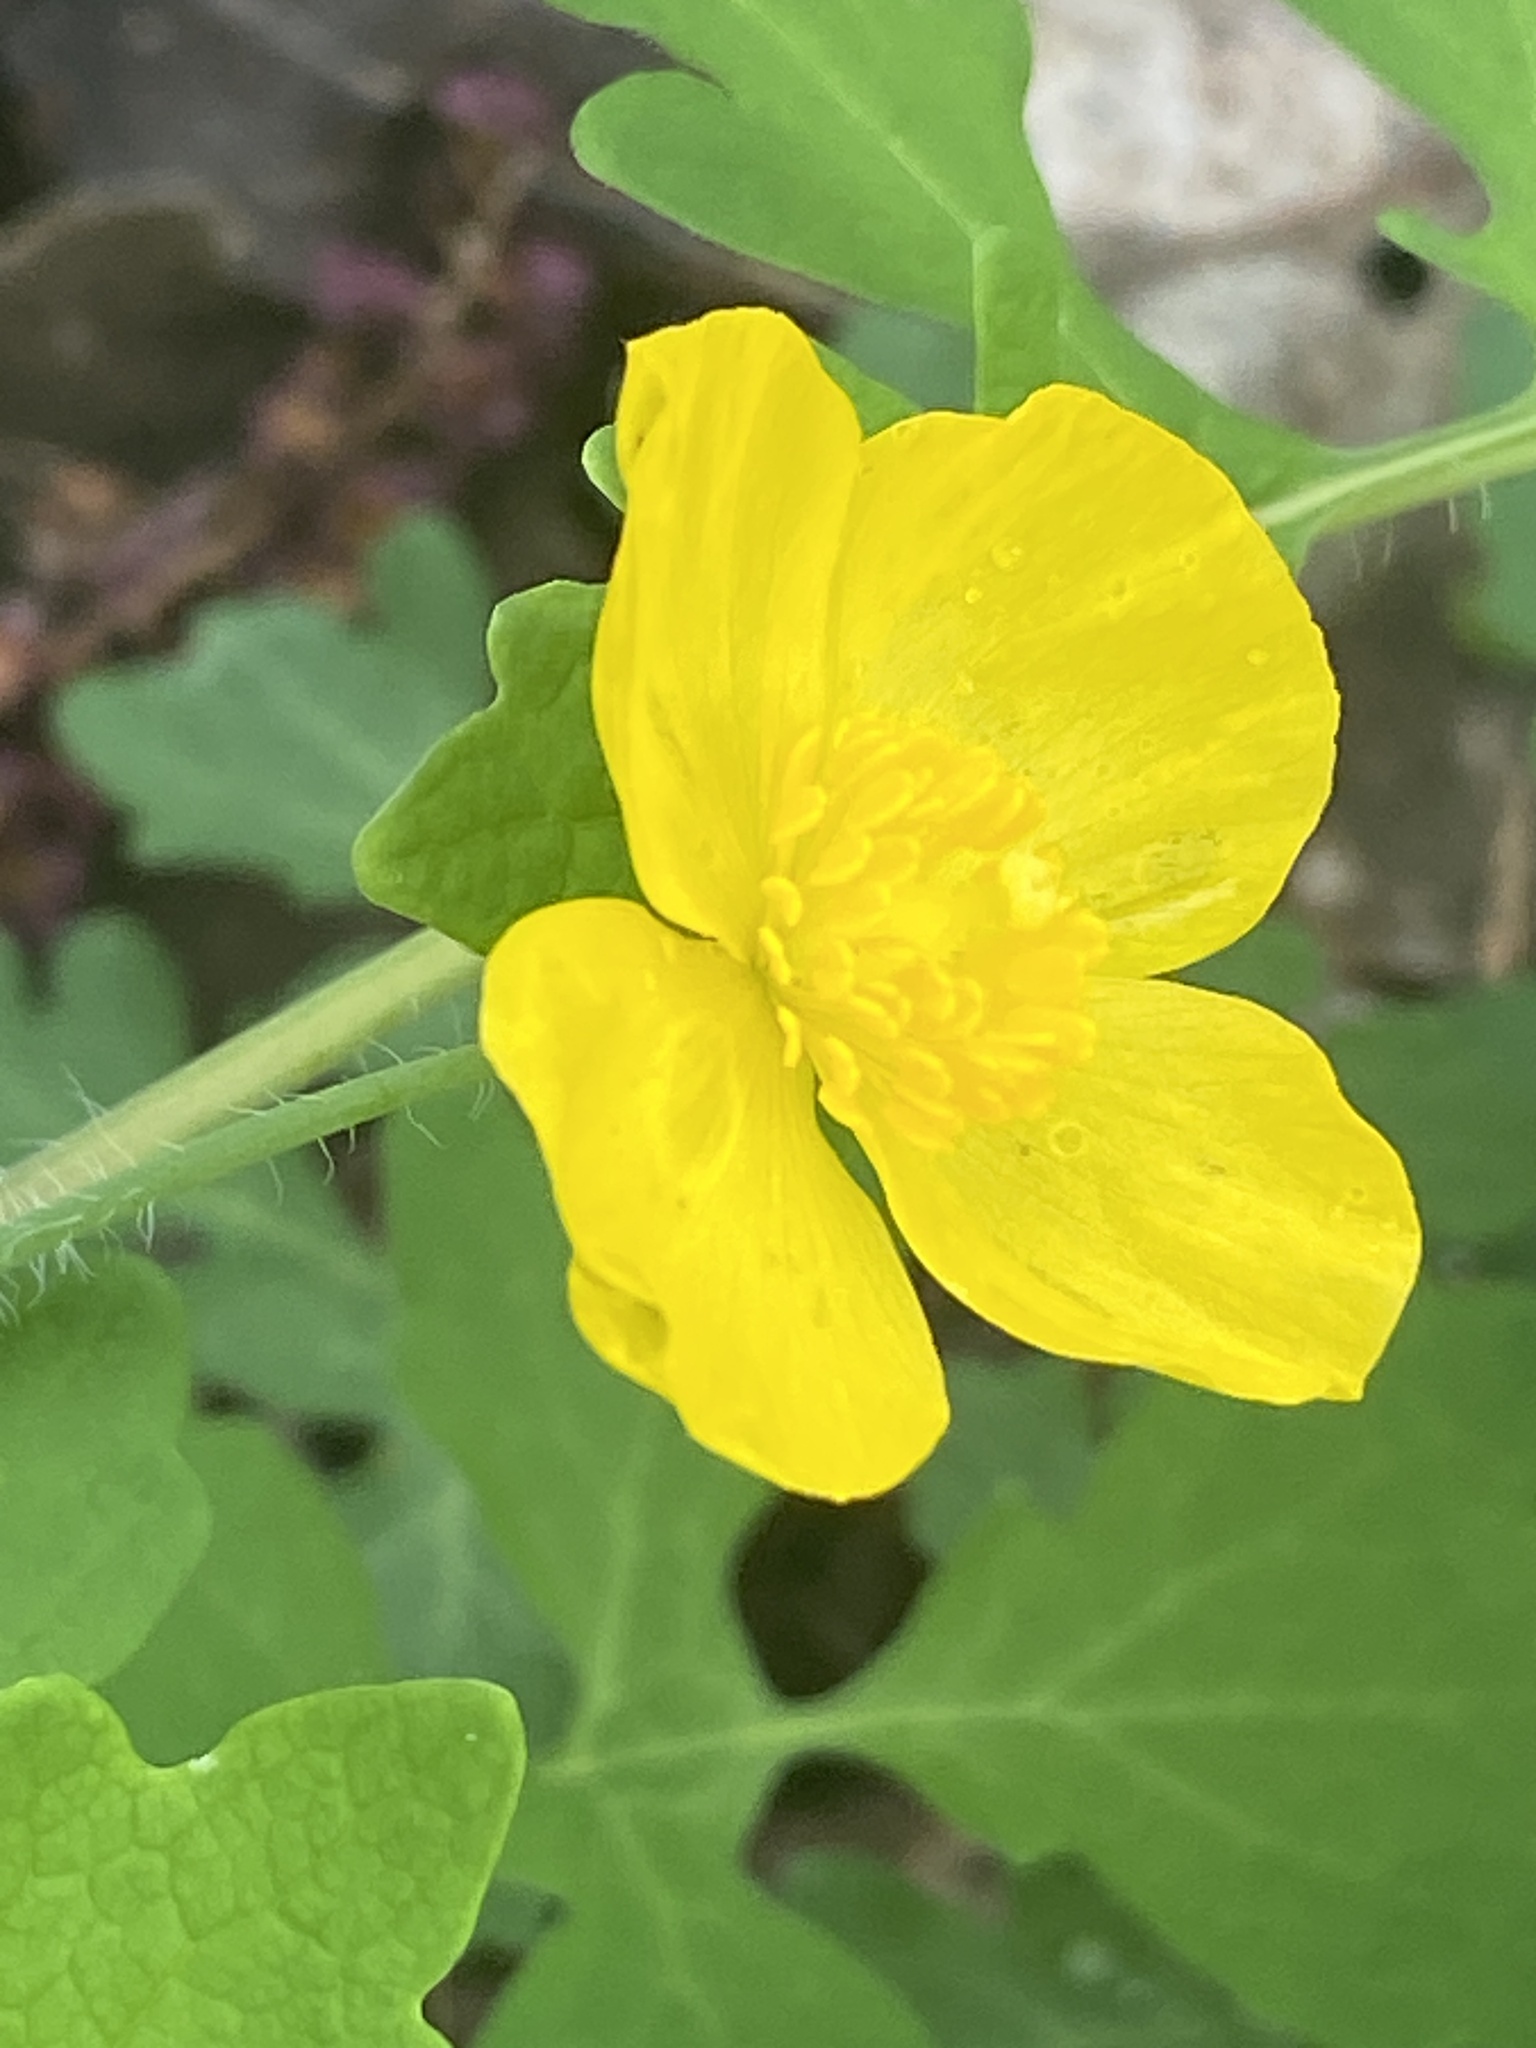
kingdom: Plantae
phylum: Tracheophyta
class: Magnoliopsida
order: Ranunculales
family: Papaveraceae
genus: Stylophorum
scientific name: Stylophorum diphyllum
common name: Celandine poppy
